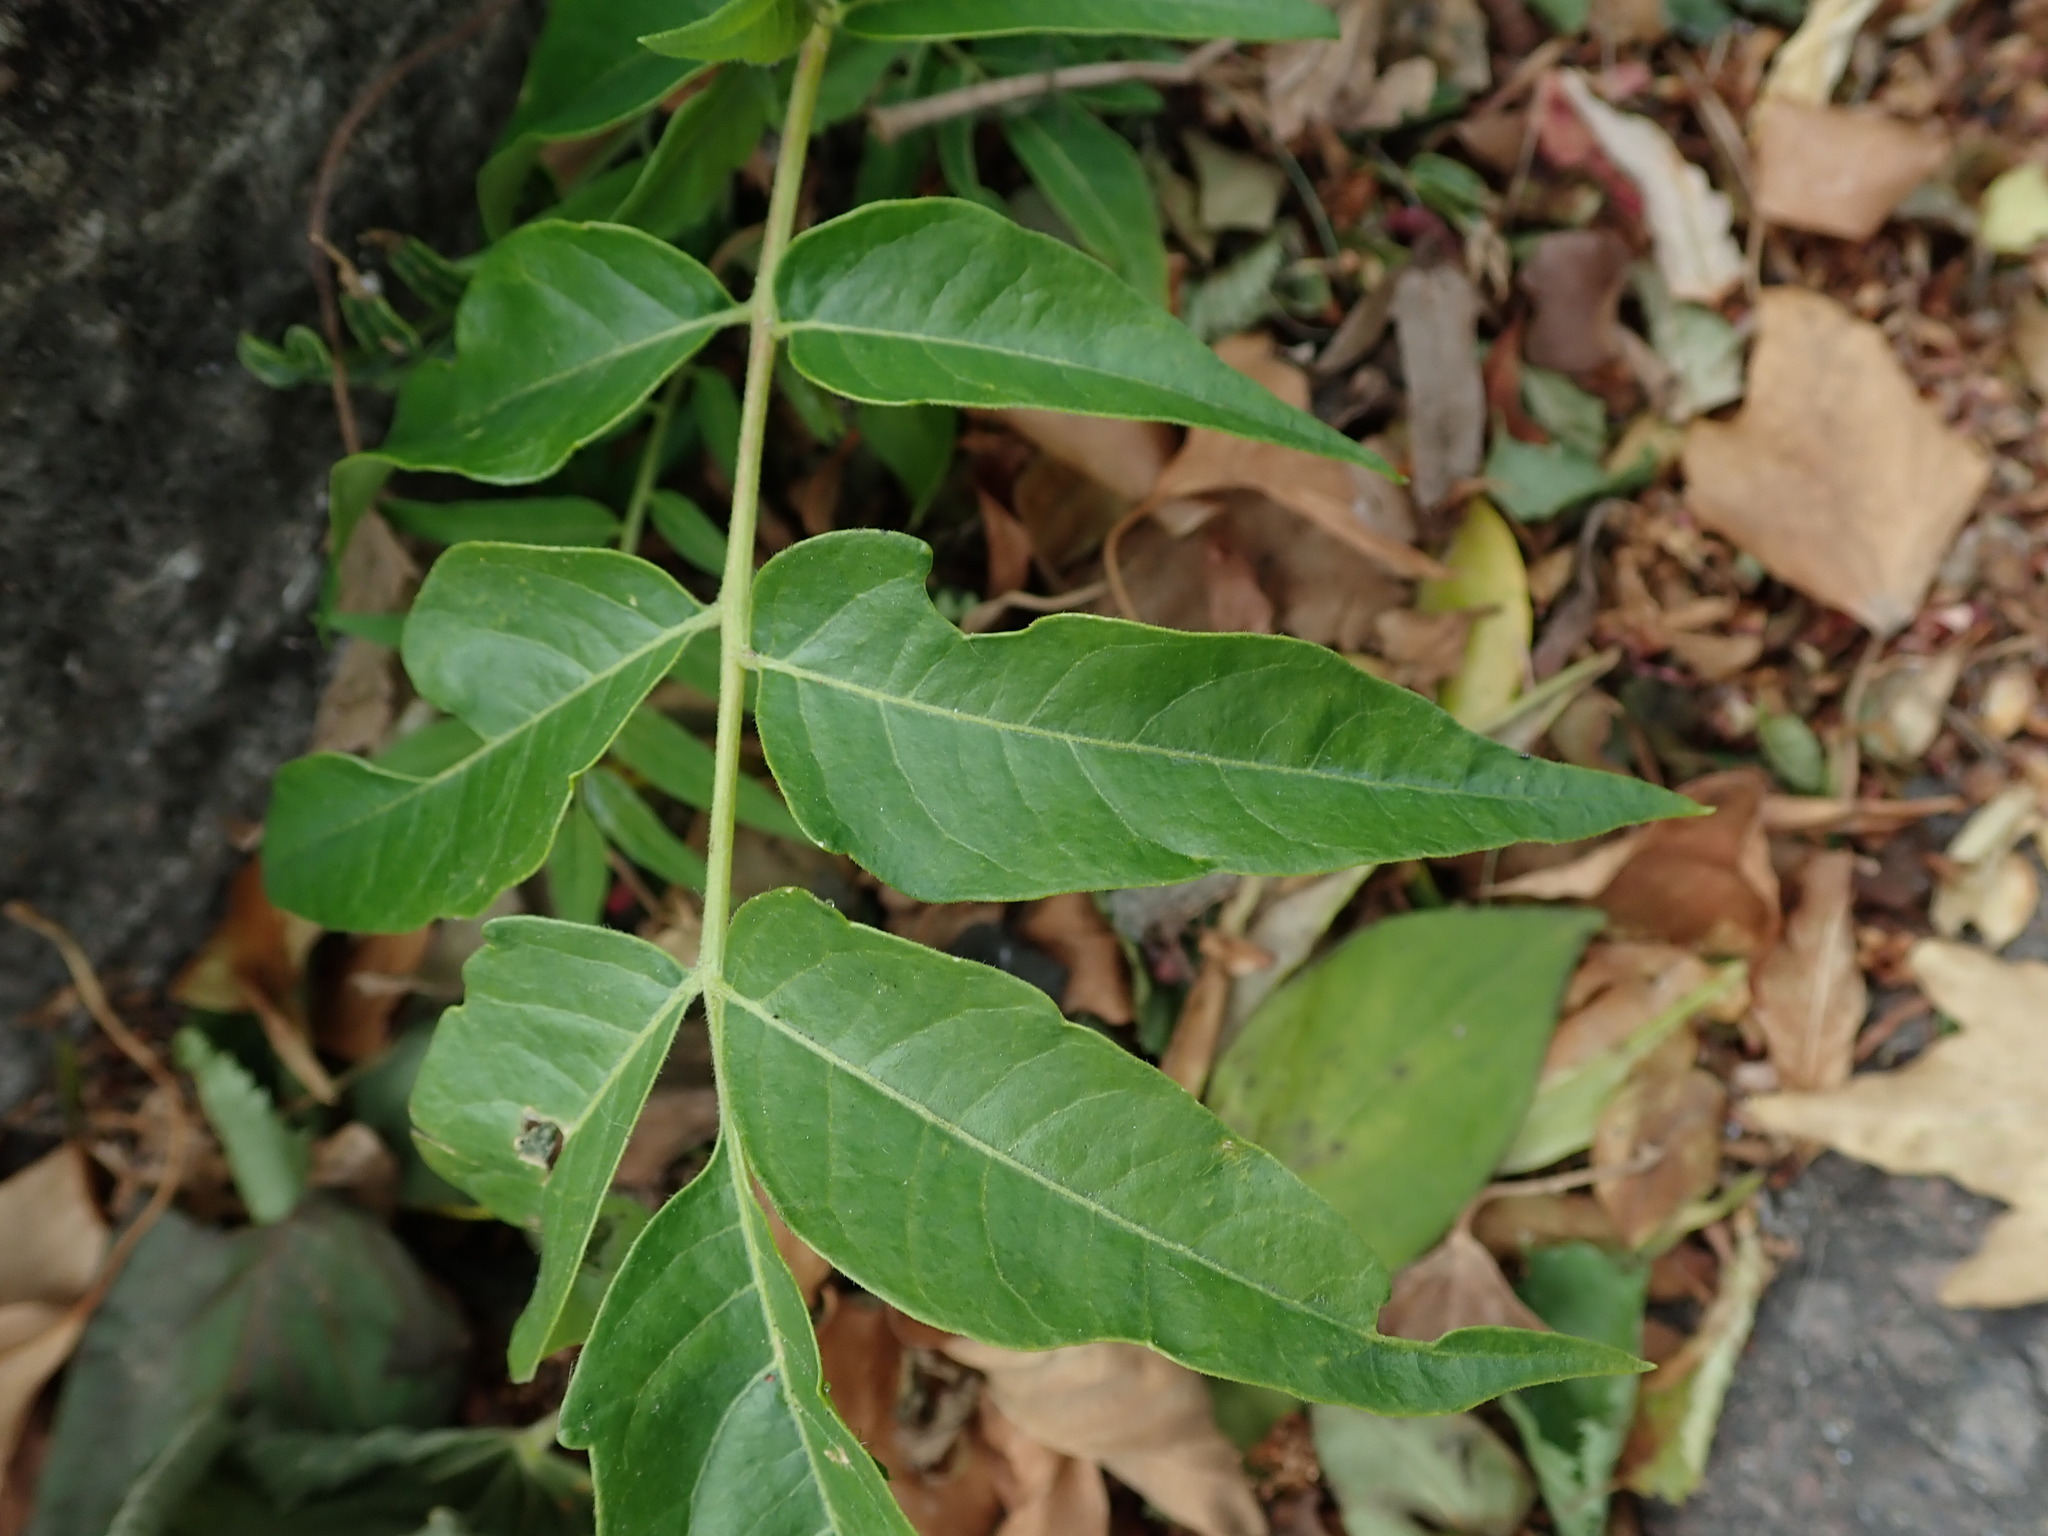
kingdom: Plantae
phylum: Tracheophyta
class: Magnoliopsida
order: Sapindales
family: Simaroubaceae
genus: Ailanthus
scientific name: Ailanthus altissima
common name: Tree-of-heaven
